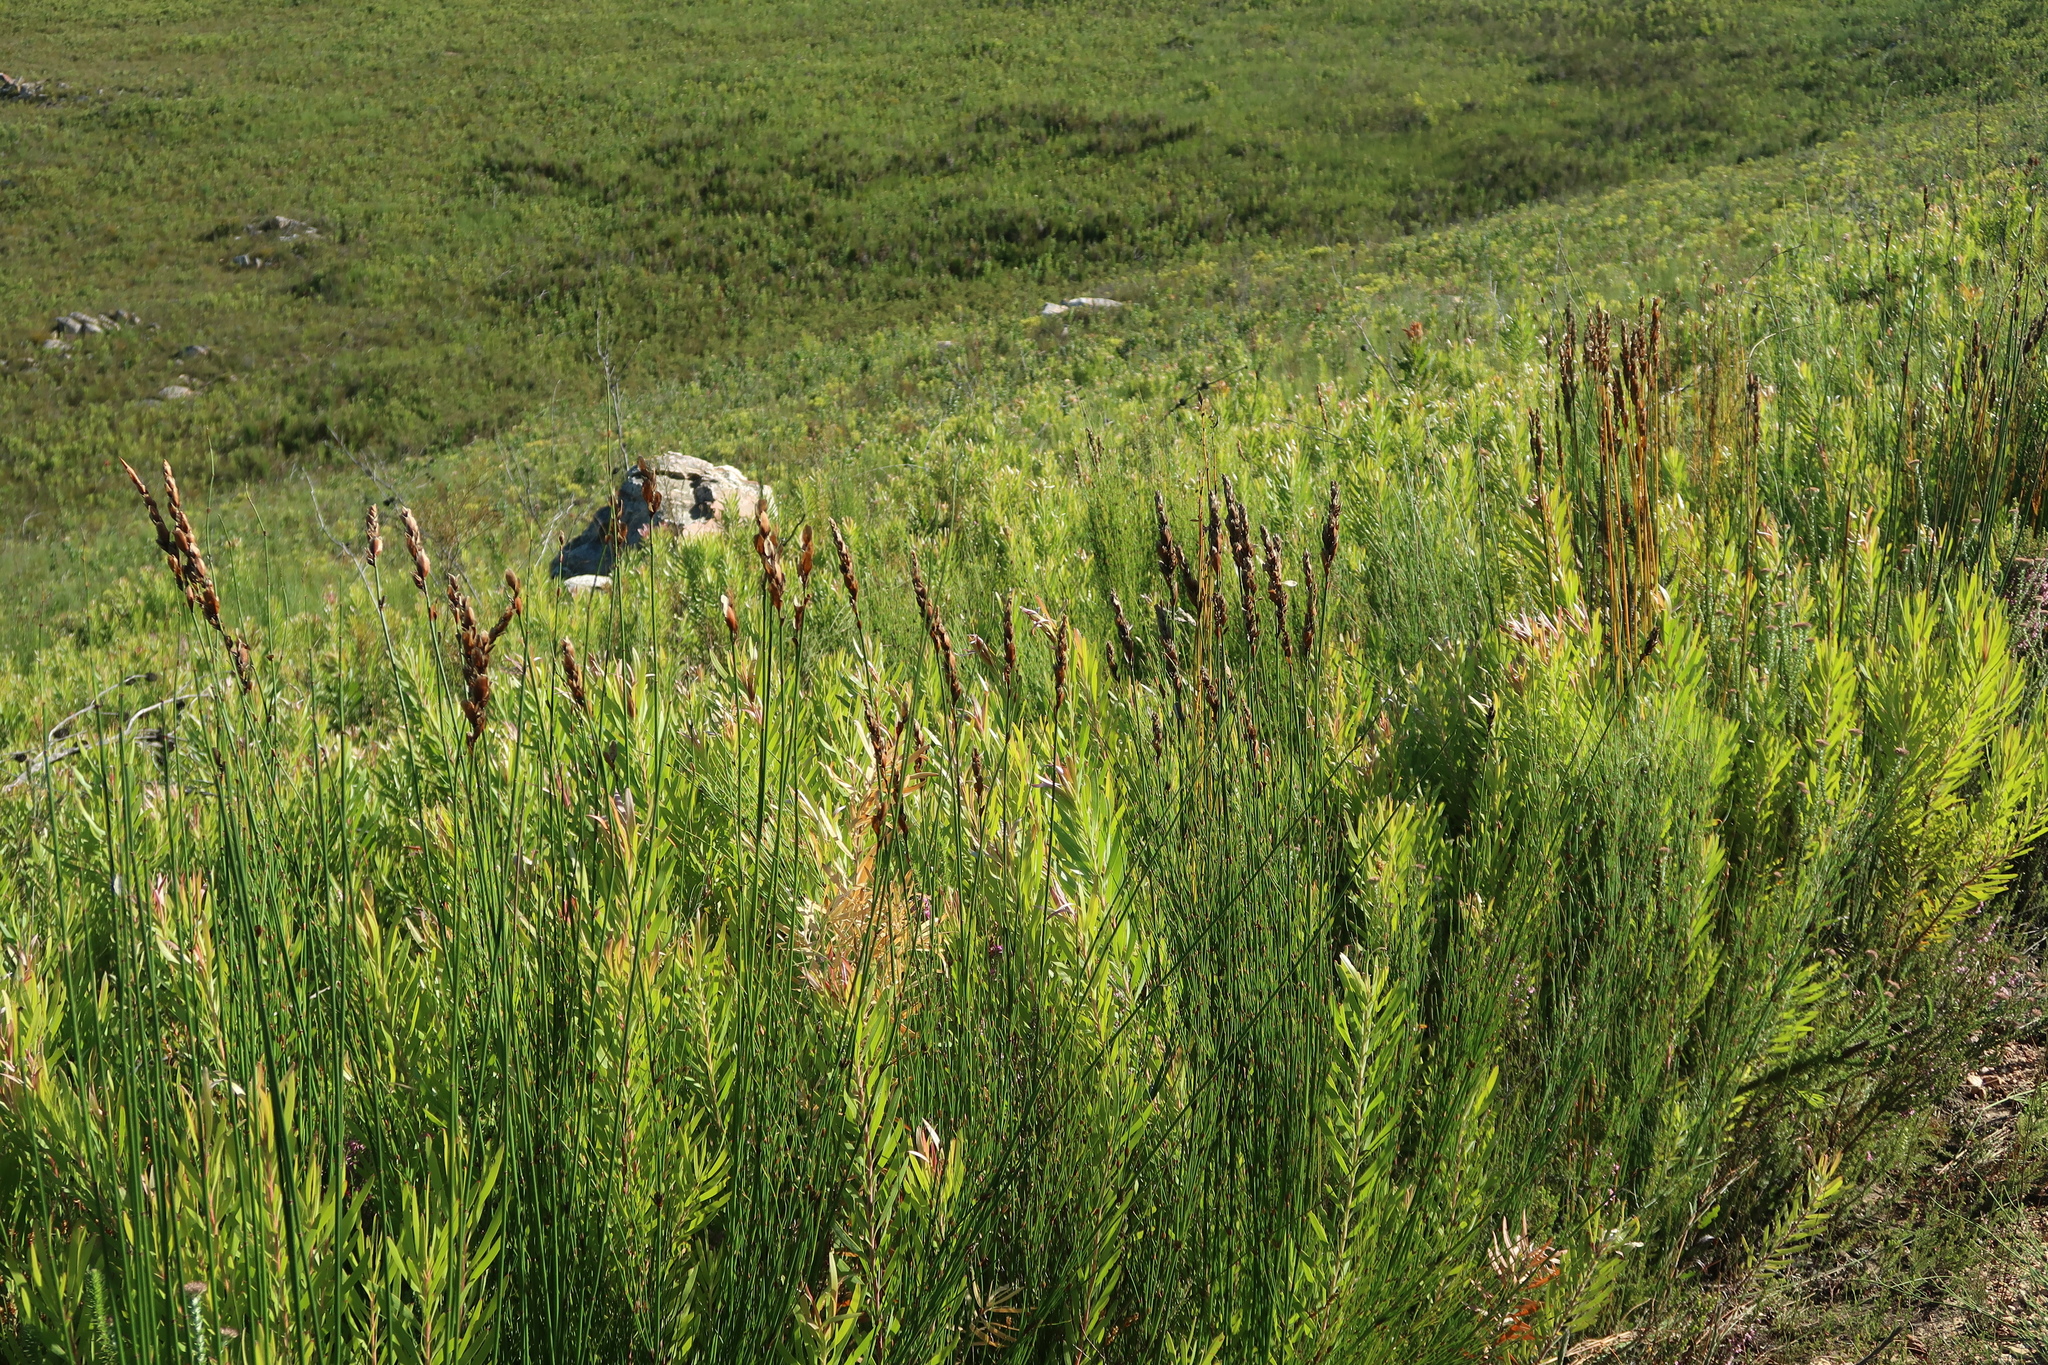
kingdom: Plantae
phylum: Tracheophyta
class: Magnoliopsida
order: Proteales
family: Proteaceae
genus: Leucadendron
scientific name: Leucadendron eucalyptifolium
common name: Gum-leaved conebush
